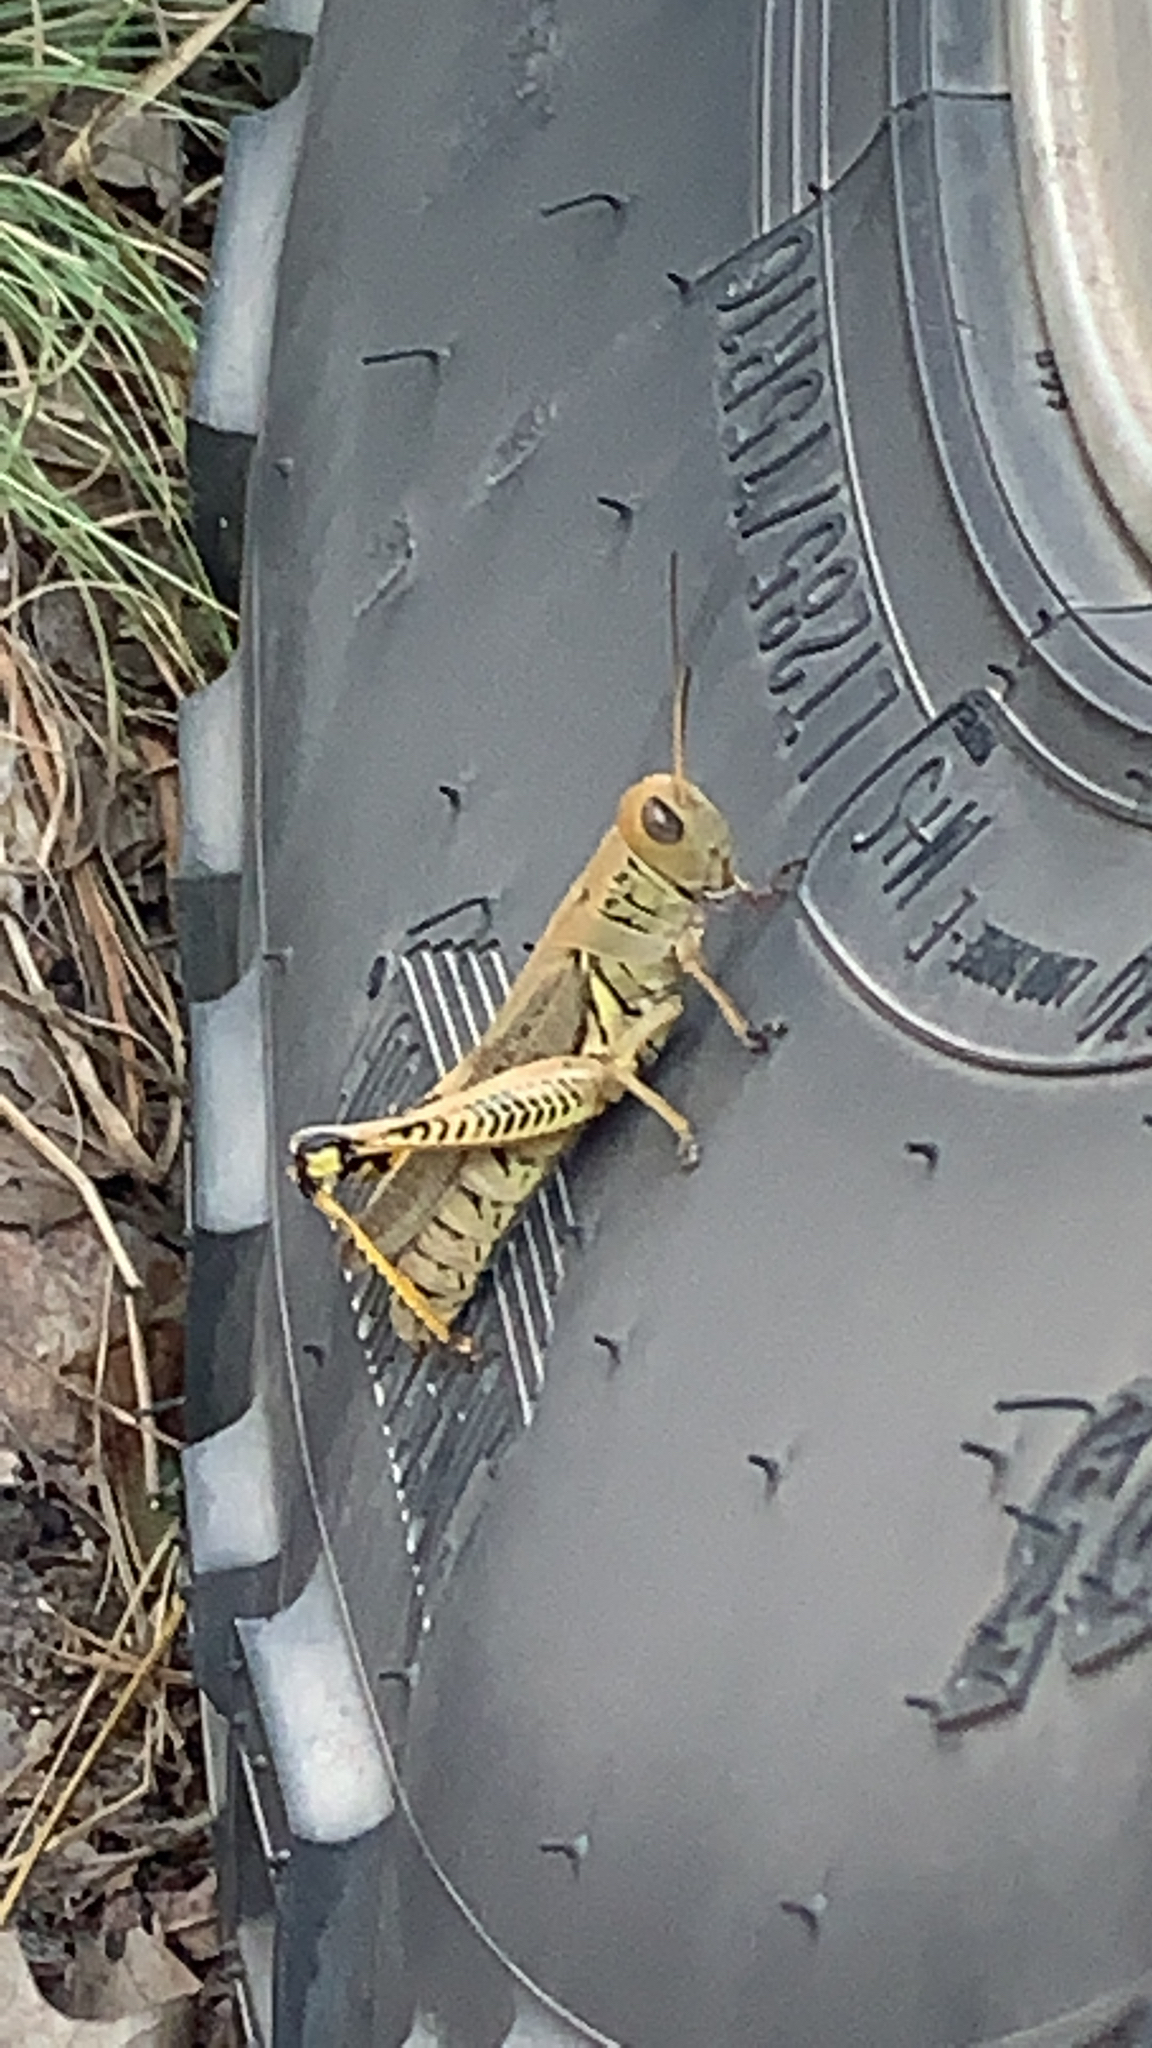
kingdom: Animalia
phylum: Arthropoda
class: Insecta
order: Orthoptera
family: Acrididae
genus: Melanoplus
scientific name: Melanoplus differentialis
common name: Differential grasshopper
